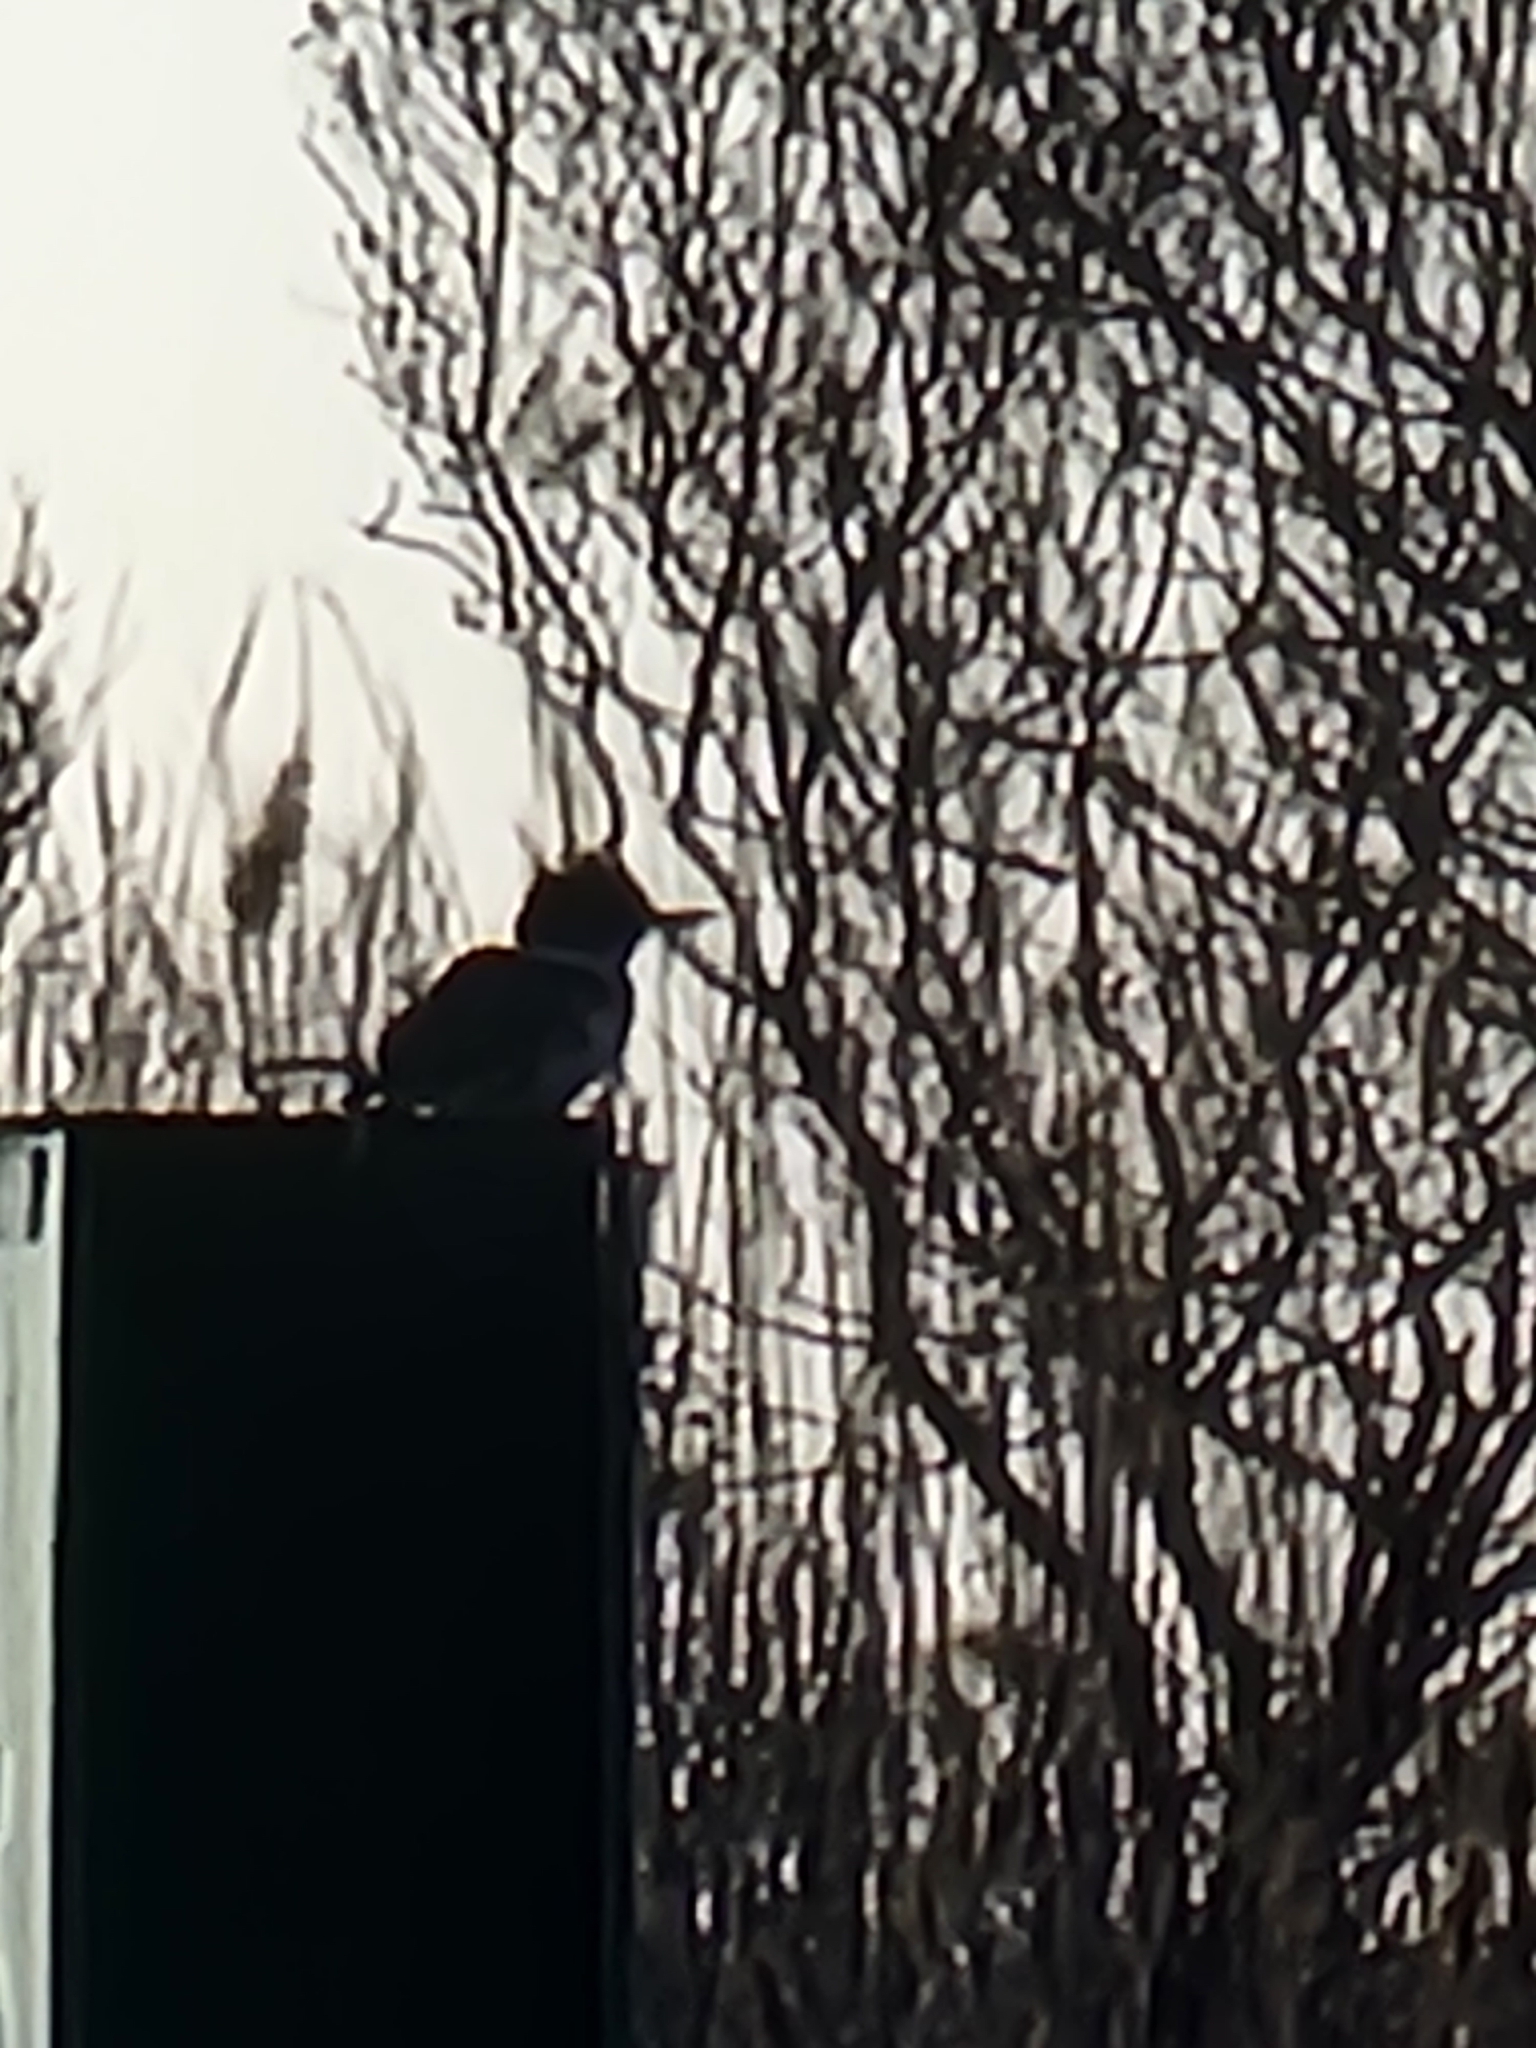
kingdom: Animalia
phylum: Chordata
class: Aves
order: Coraciiformes
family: Alcedinidae
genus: Megaceryle
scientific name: Megaceryle alcyon
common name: Belted kingfisher
